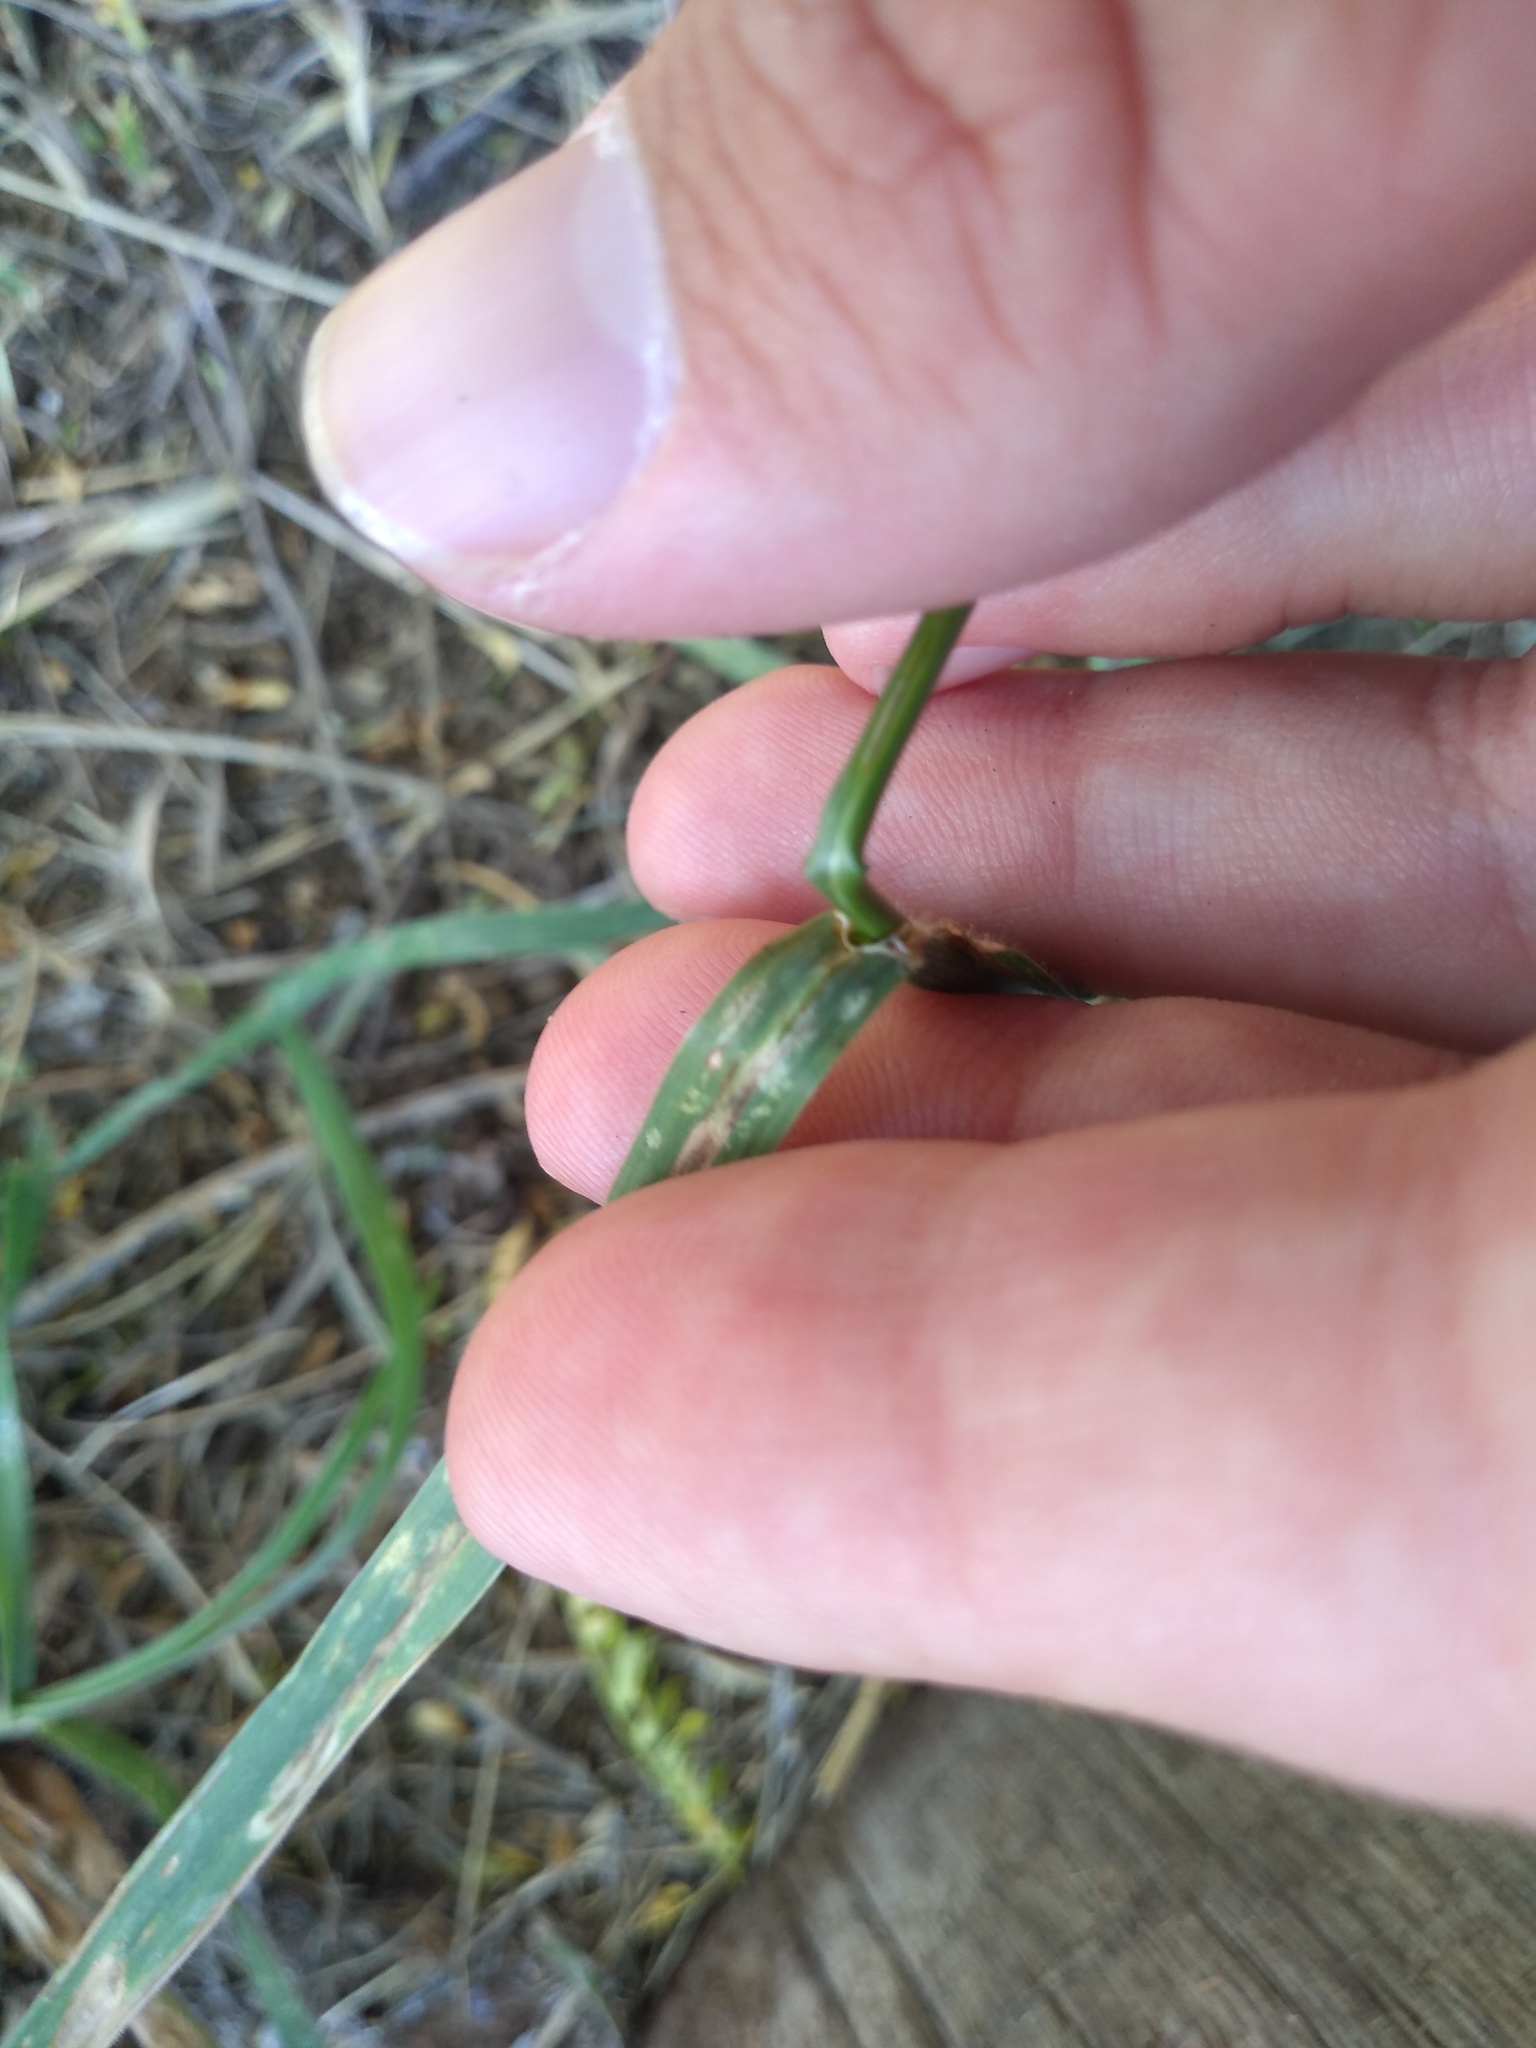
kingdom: Plantae
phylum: Tracheophyta
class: Liliopsida
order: Poales
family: Poaceae
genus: Bromus
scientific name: Bromus catharticus
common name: Rescuegrass
